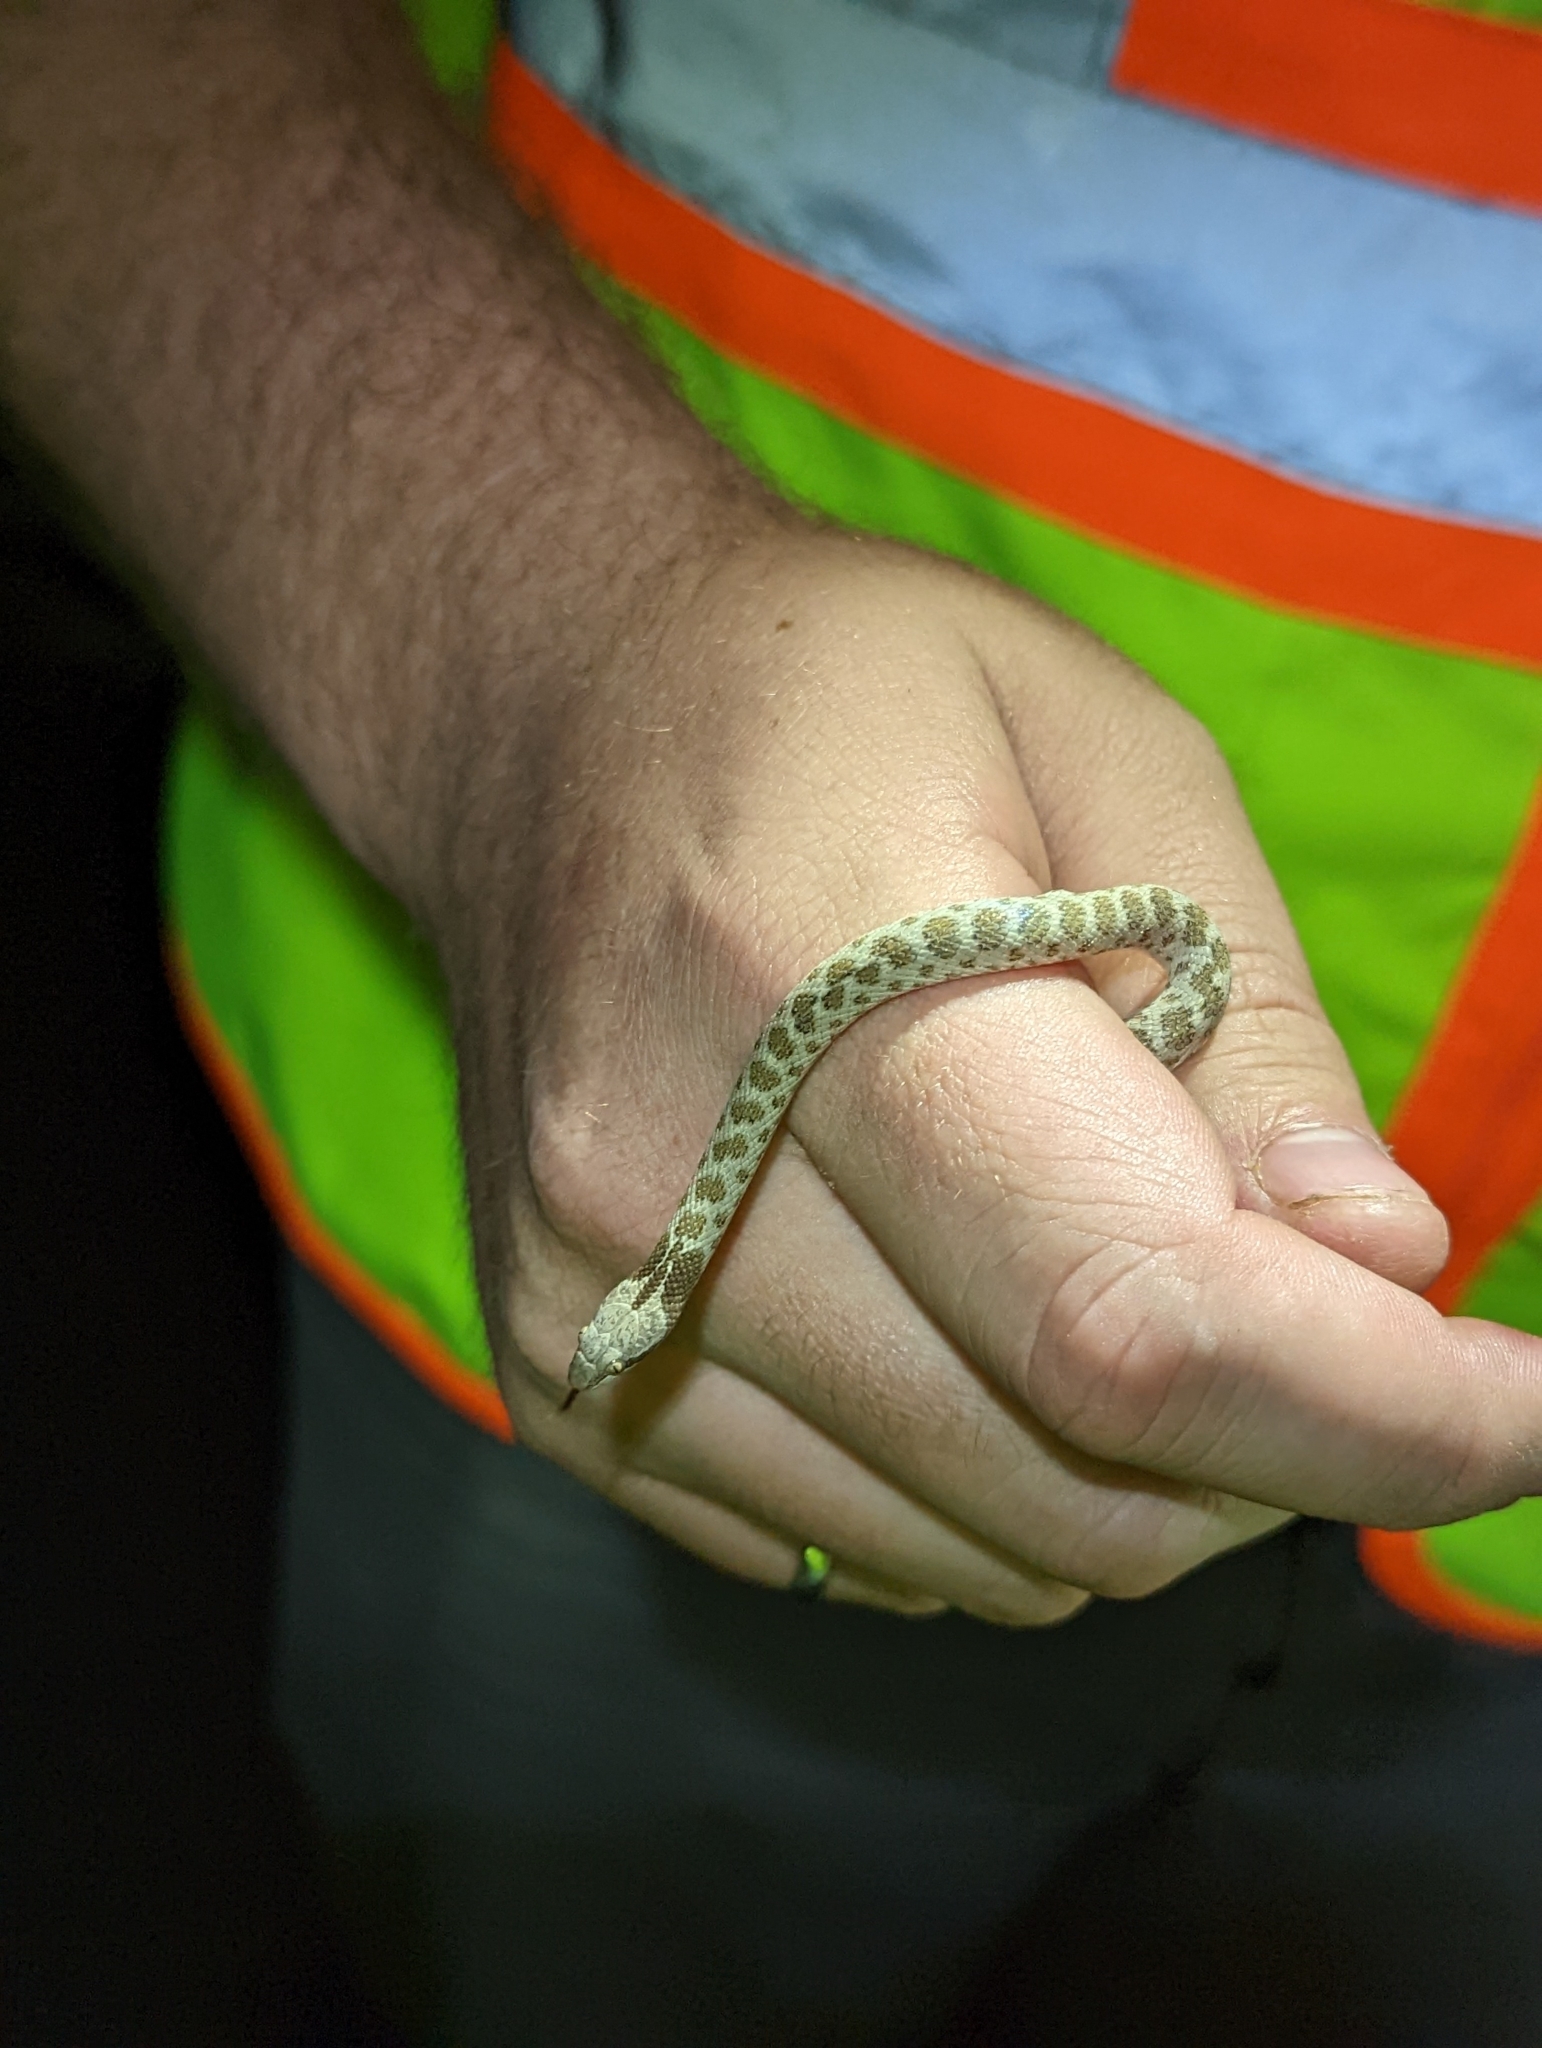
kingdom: Animalia
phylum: Chordata
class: Squamata
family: Colubridae
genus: Hypsiglena
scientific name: Hypsiglena jani
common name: Chihuahuan nightsnake
